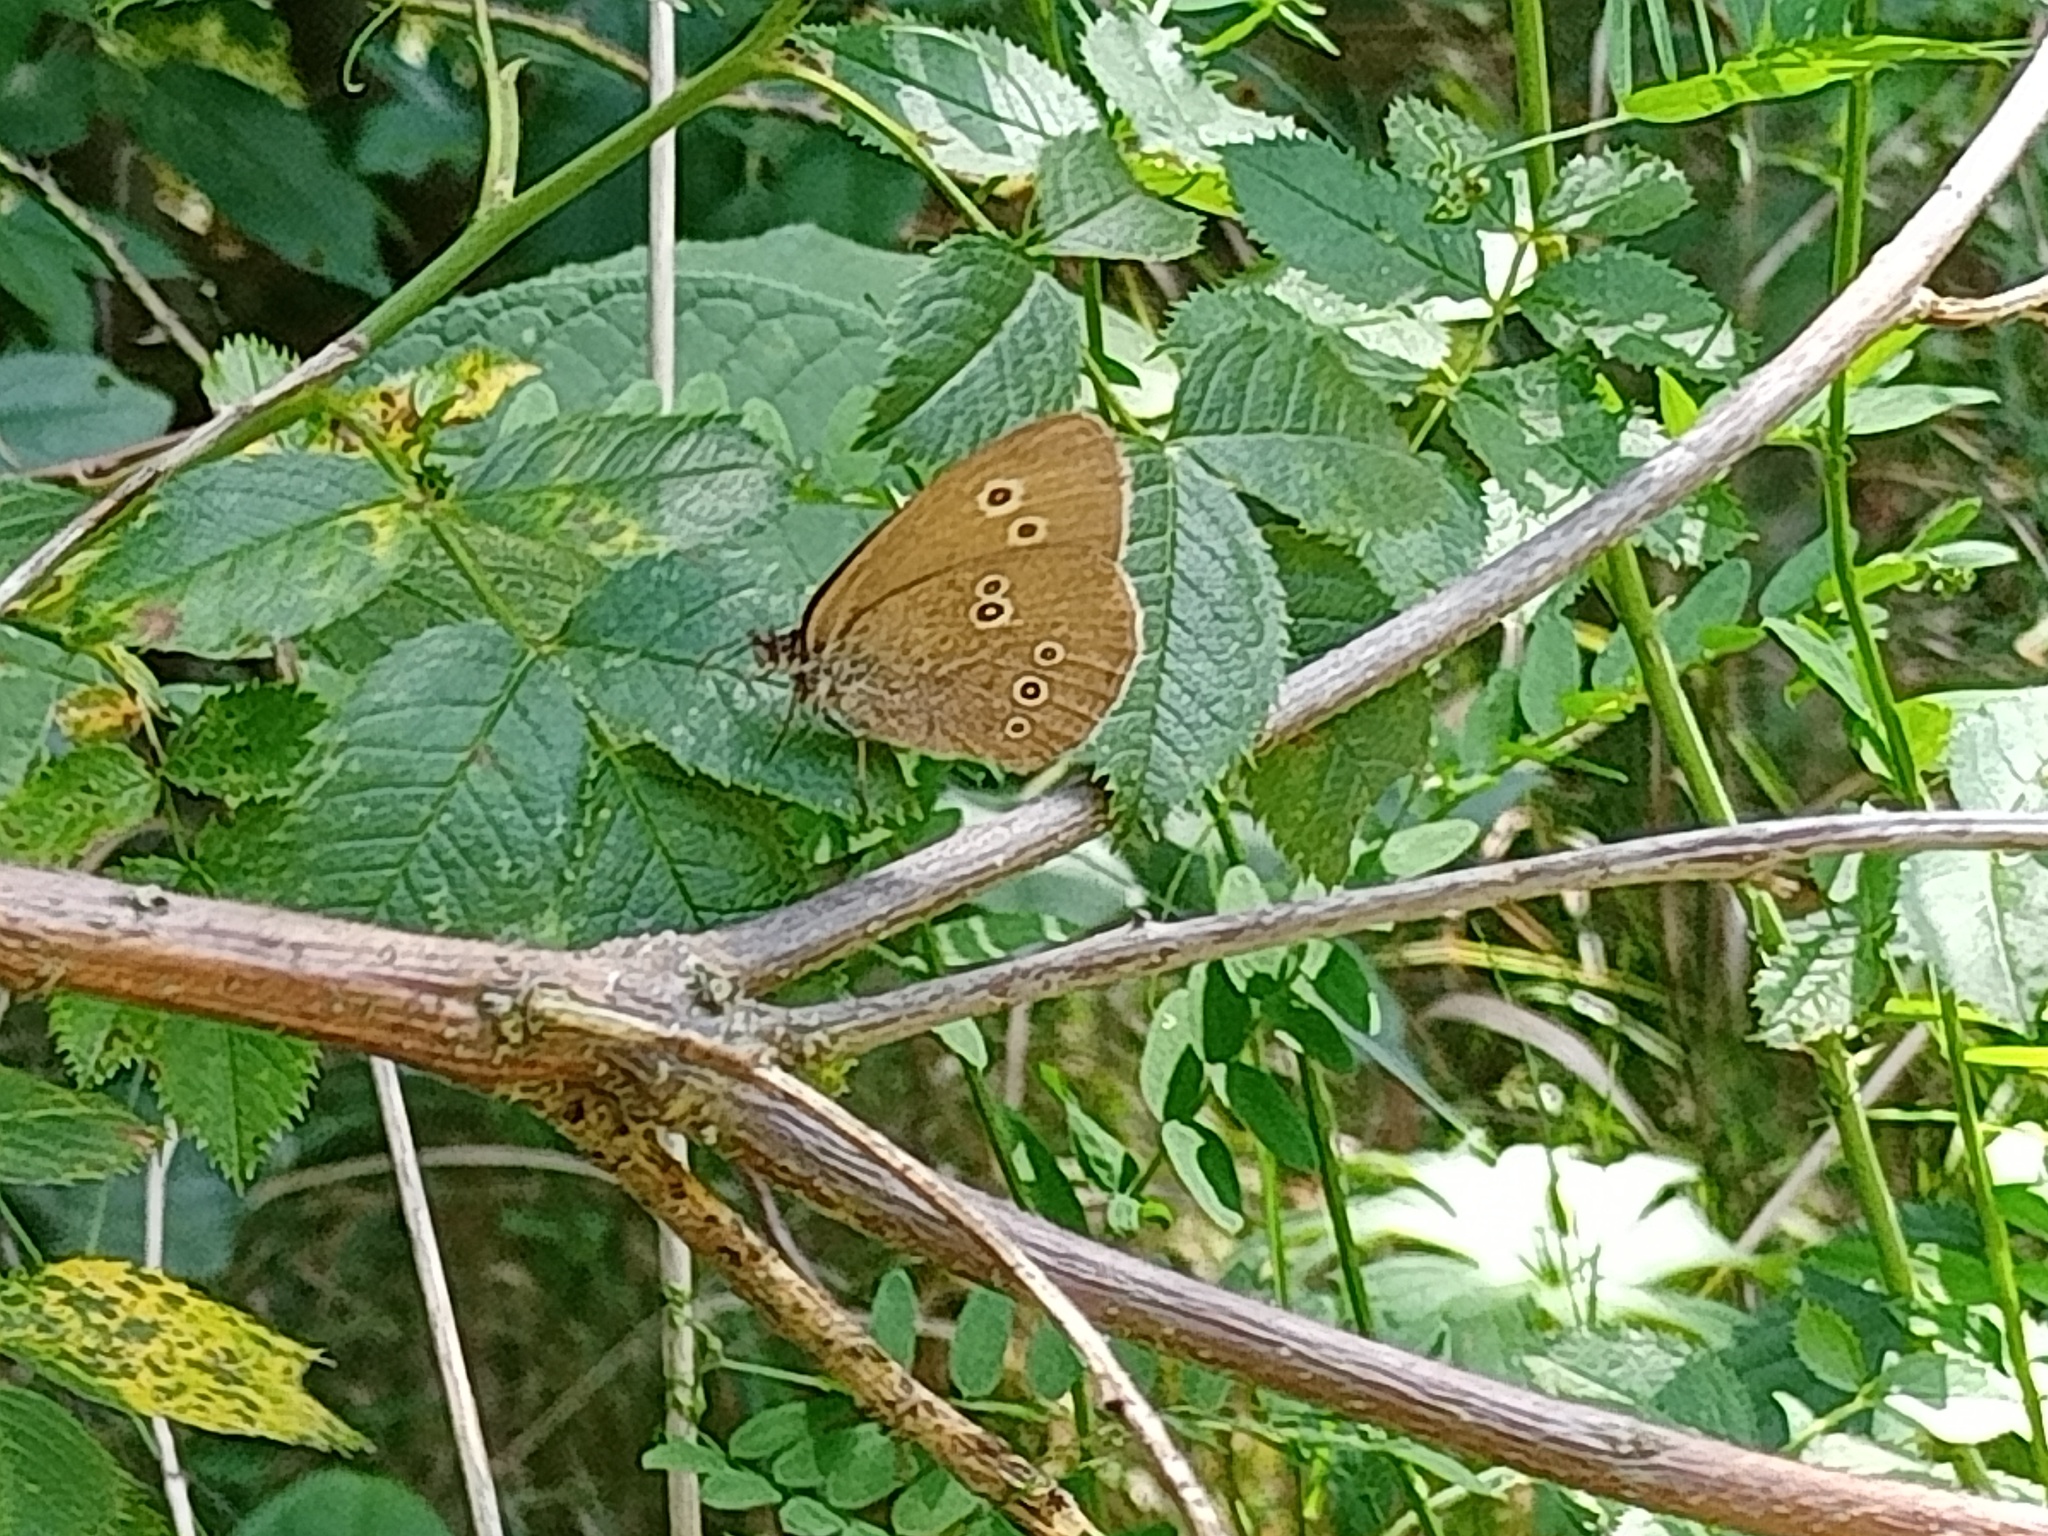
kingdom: Animalia
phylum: Arthropoda
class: Insecta
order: Lepidoptera
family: Nymphalidae
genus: Aphantopus
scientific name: Aphantopus hyperantus
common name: Ringlet
